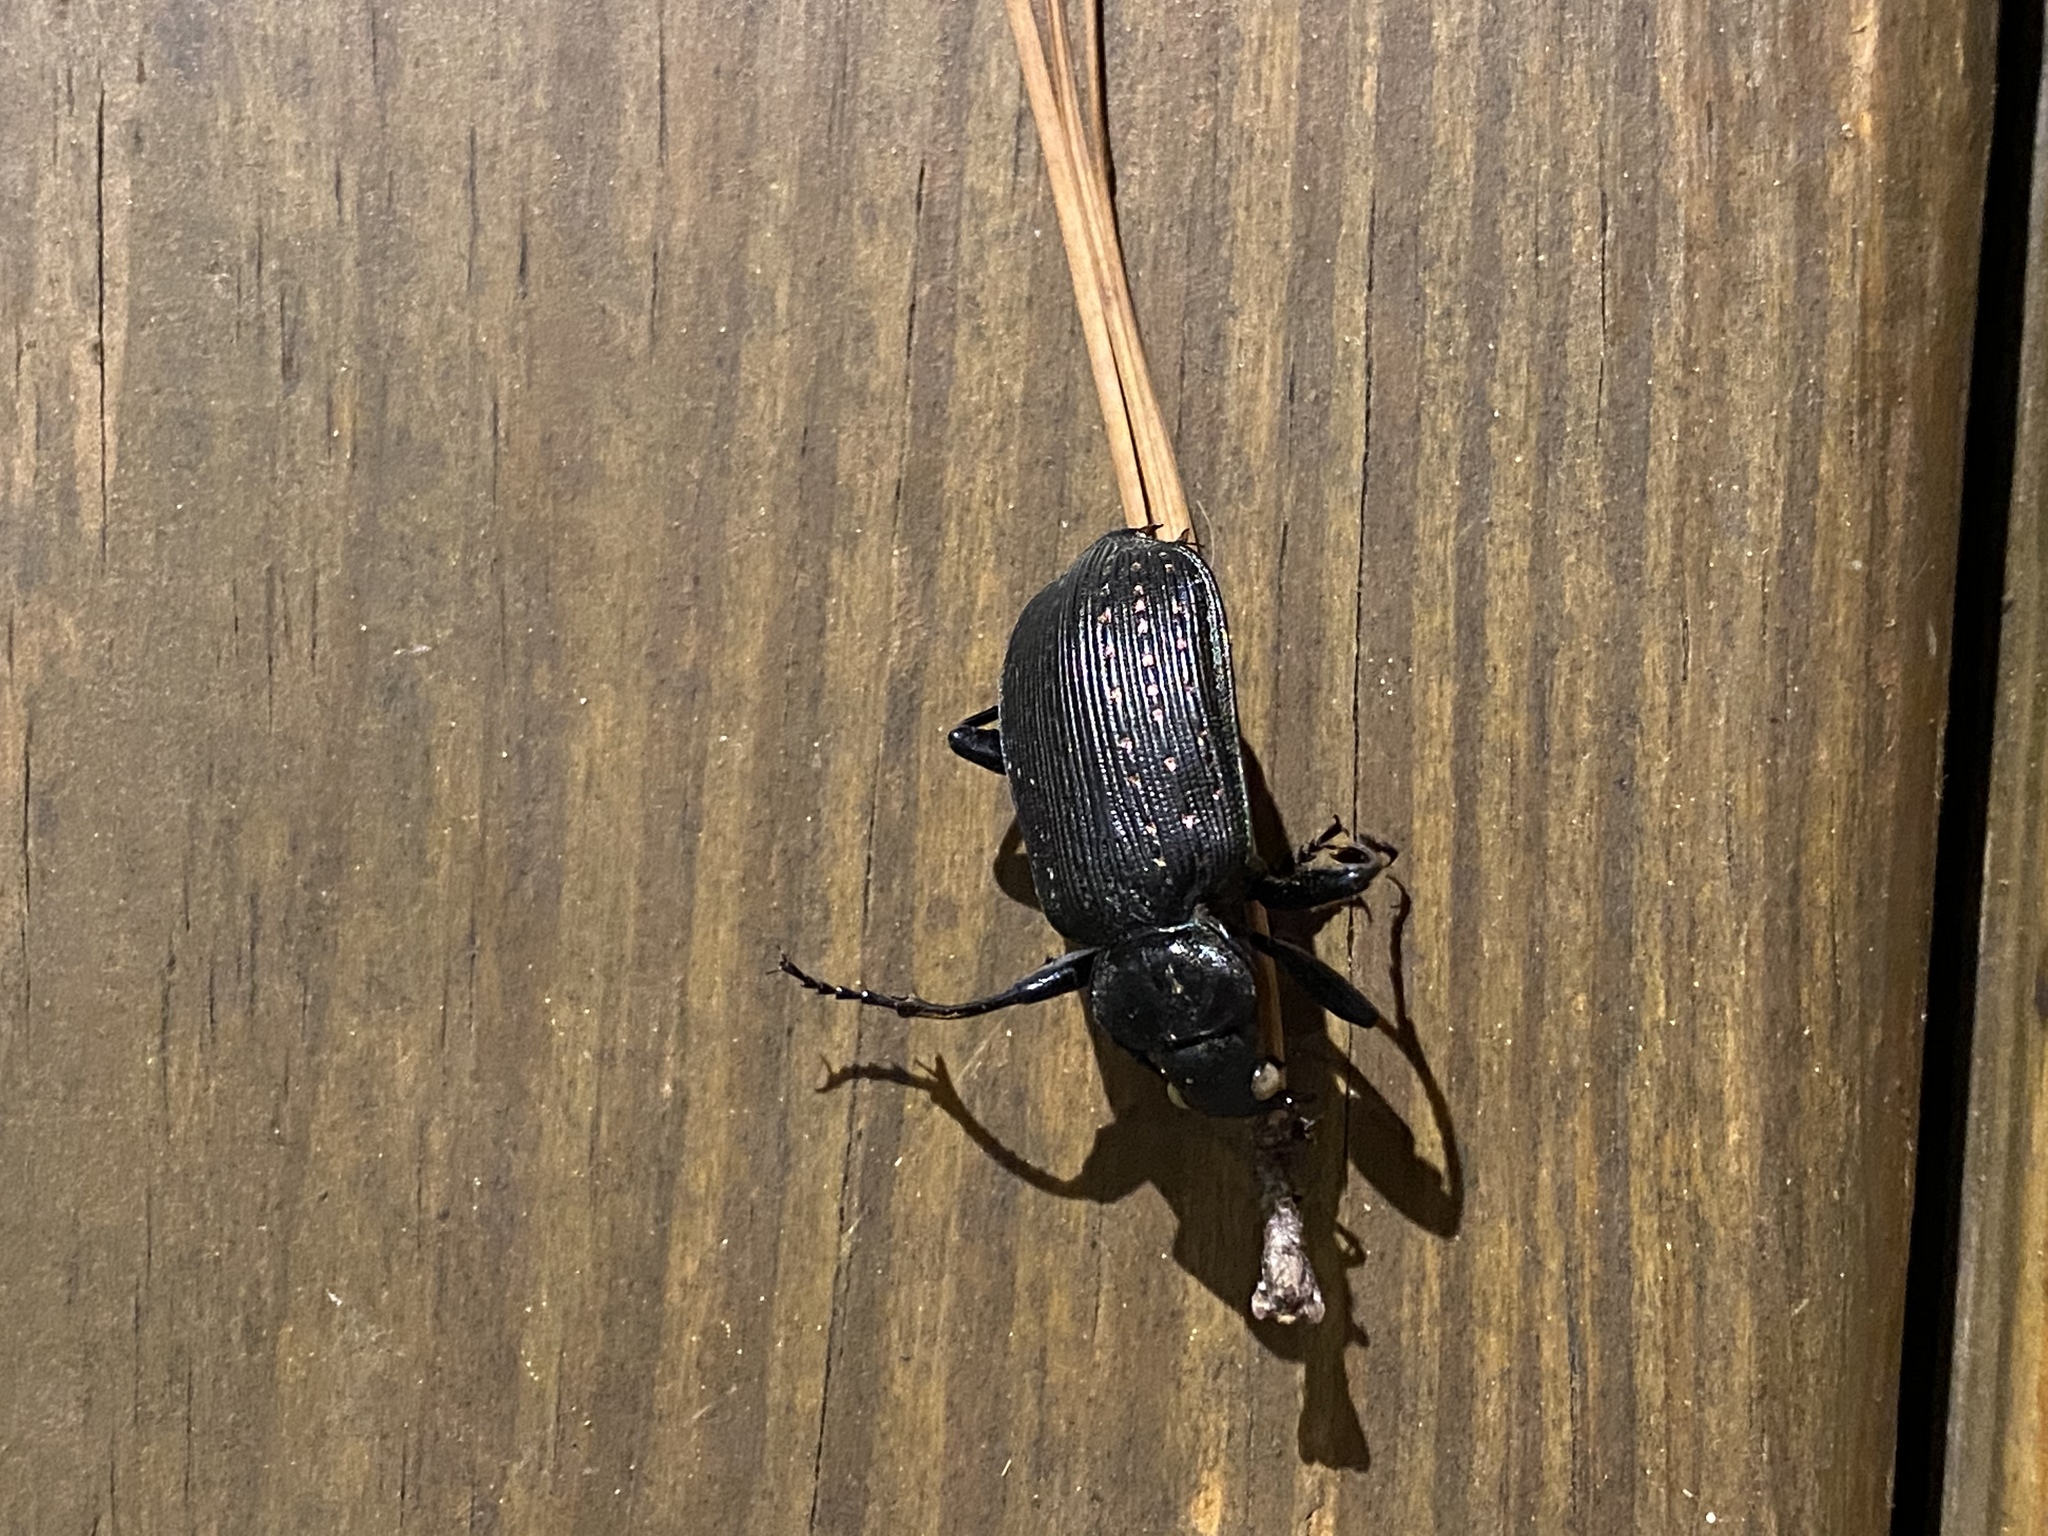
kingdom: Animalia
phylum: Arthropoda
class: Insecta
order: Coleoptera
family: Carabidae
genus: Calosoma
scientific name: Calosoma sayi
